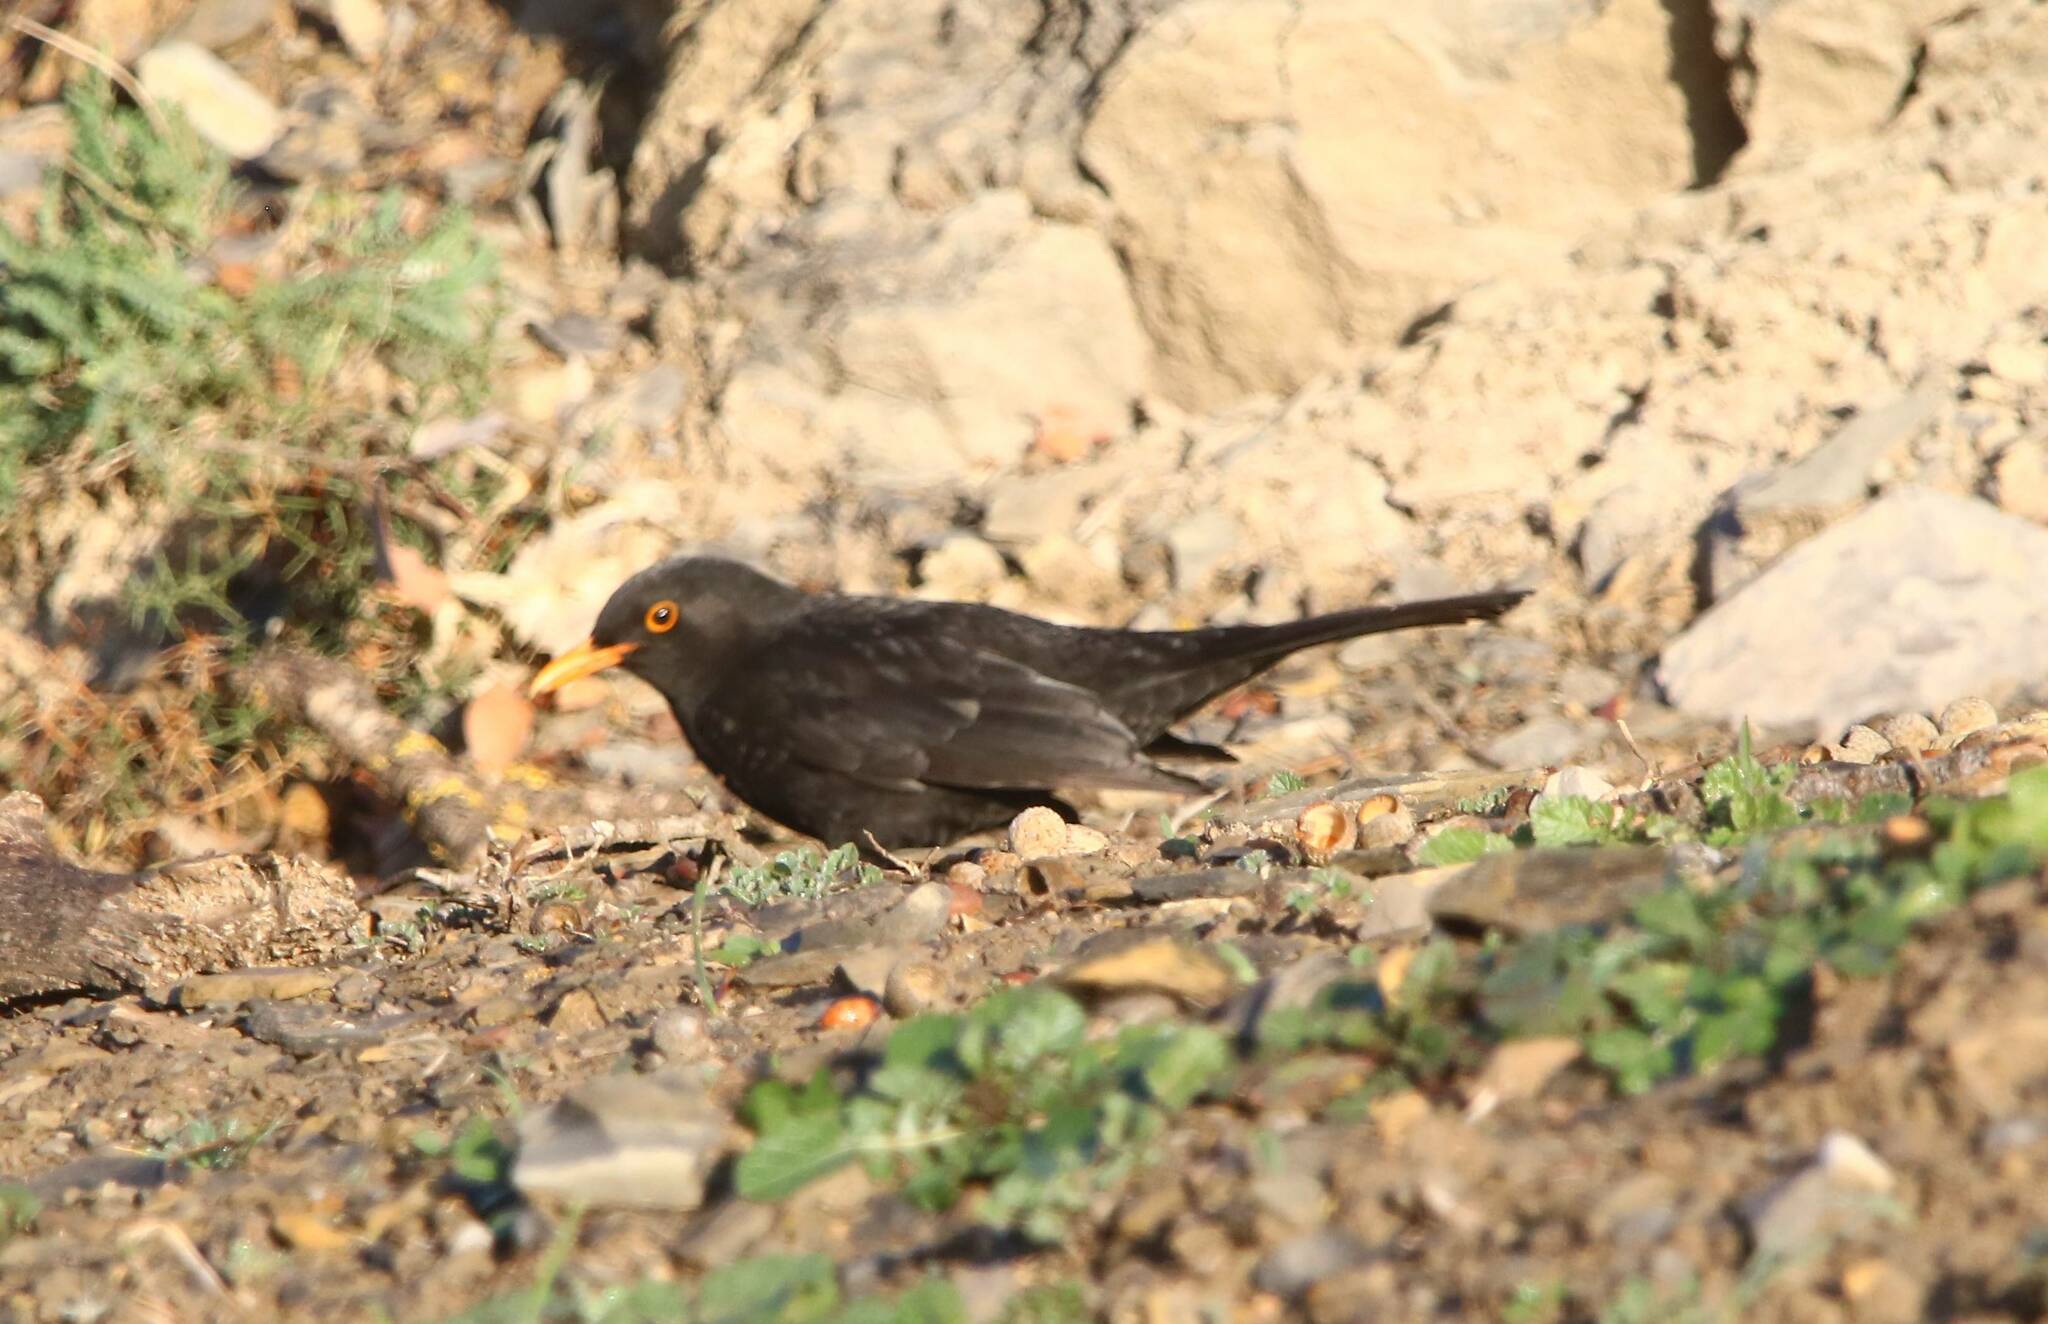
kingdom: Animalia
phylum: Chordata
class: Aves
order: Passeriformes
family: Turdidae
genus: Turdus
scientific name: Turdus merula
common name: Common blackbird
